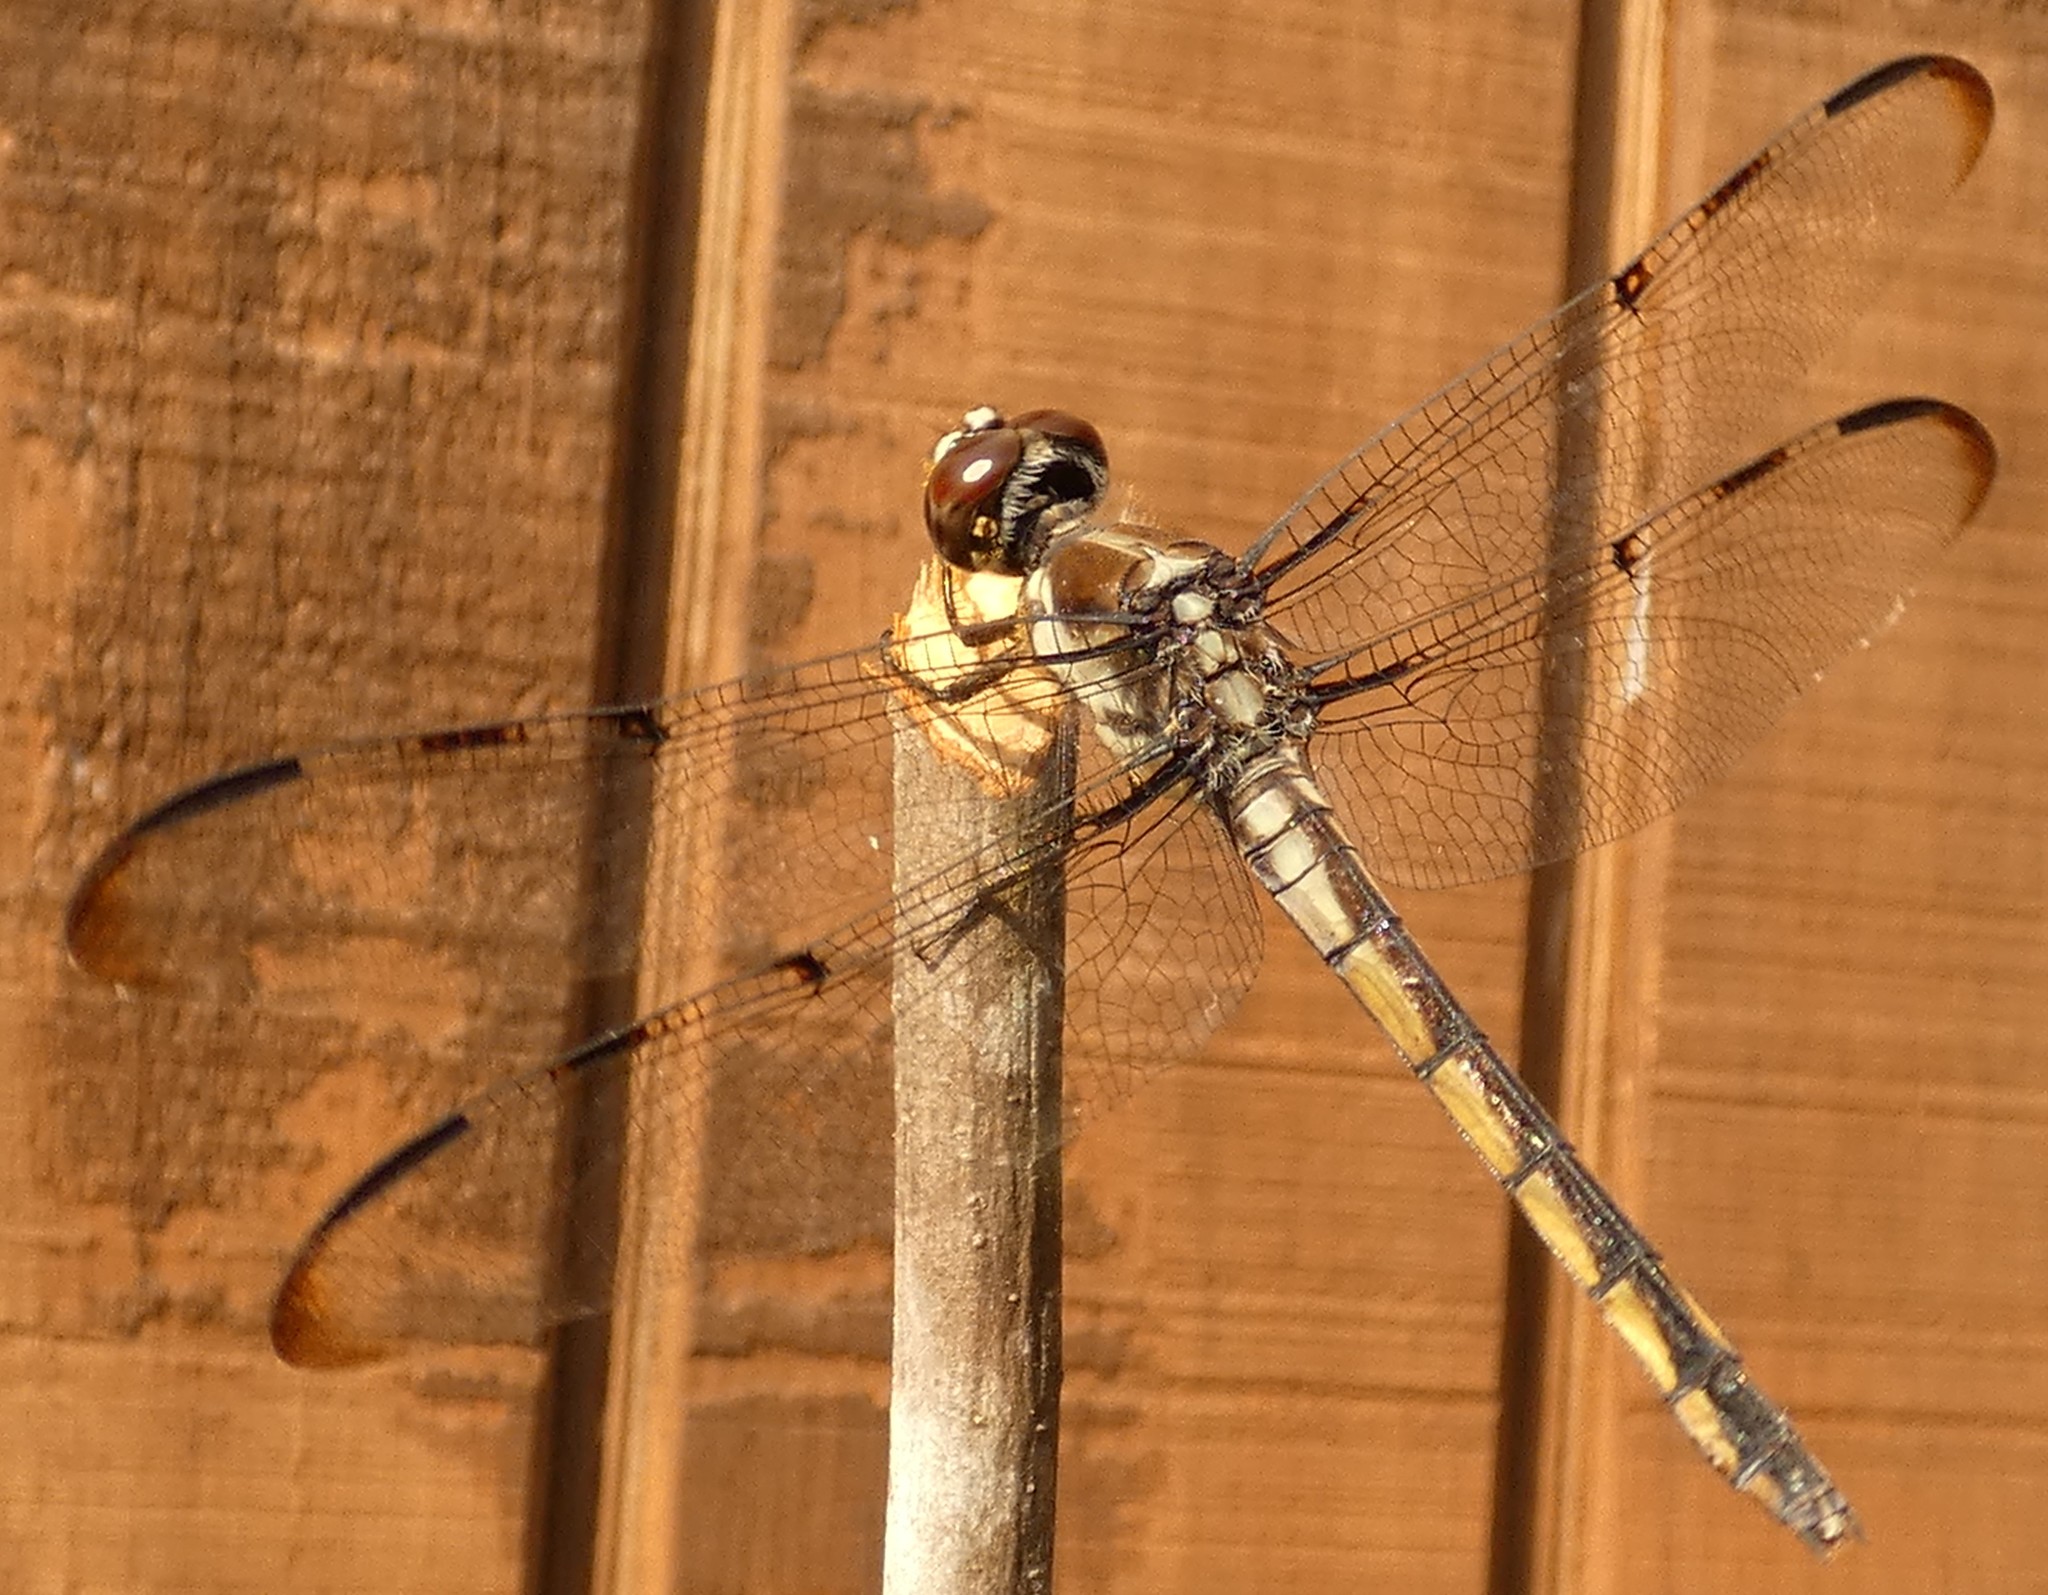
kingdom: Animalia
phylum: Arthropoda
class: Insecta
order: Odonata
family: Libellulidae
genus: Libellula
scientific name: Libellula axilena
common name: Bar-winged skimmer
